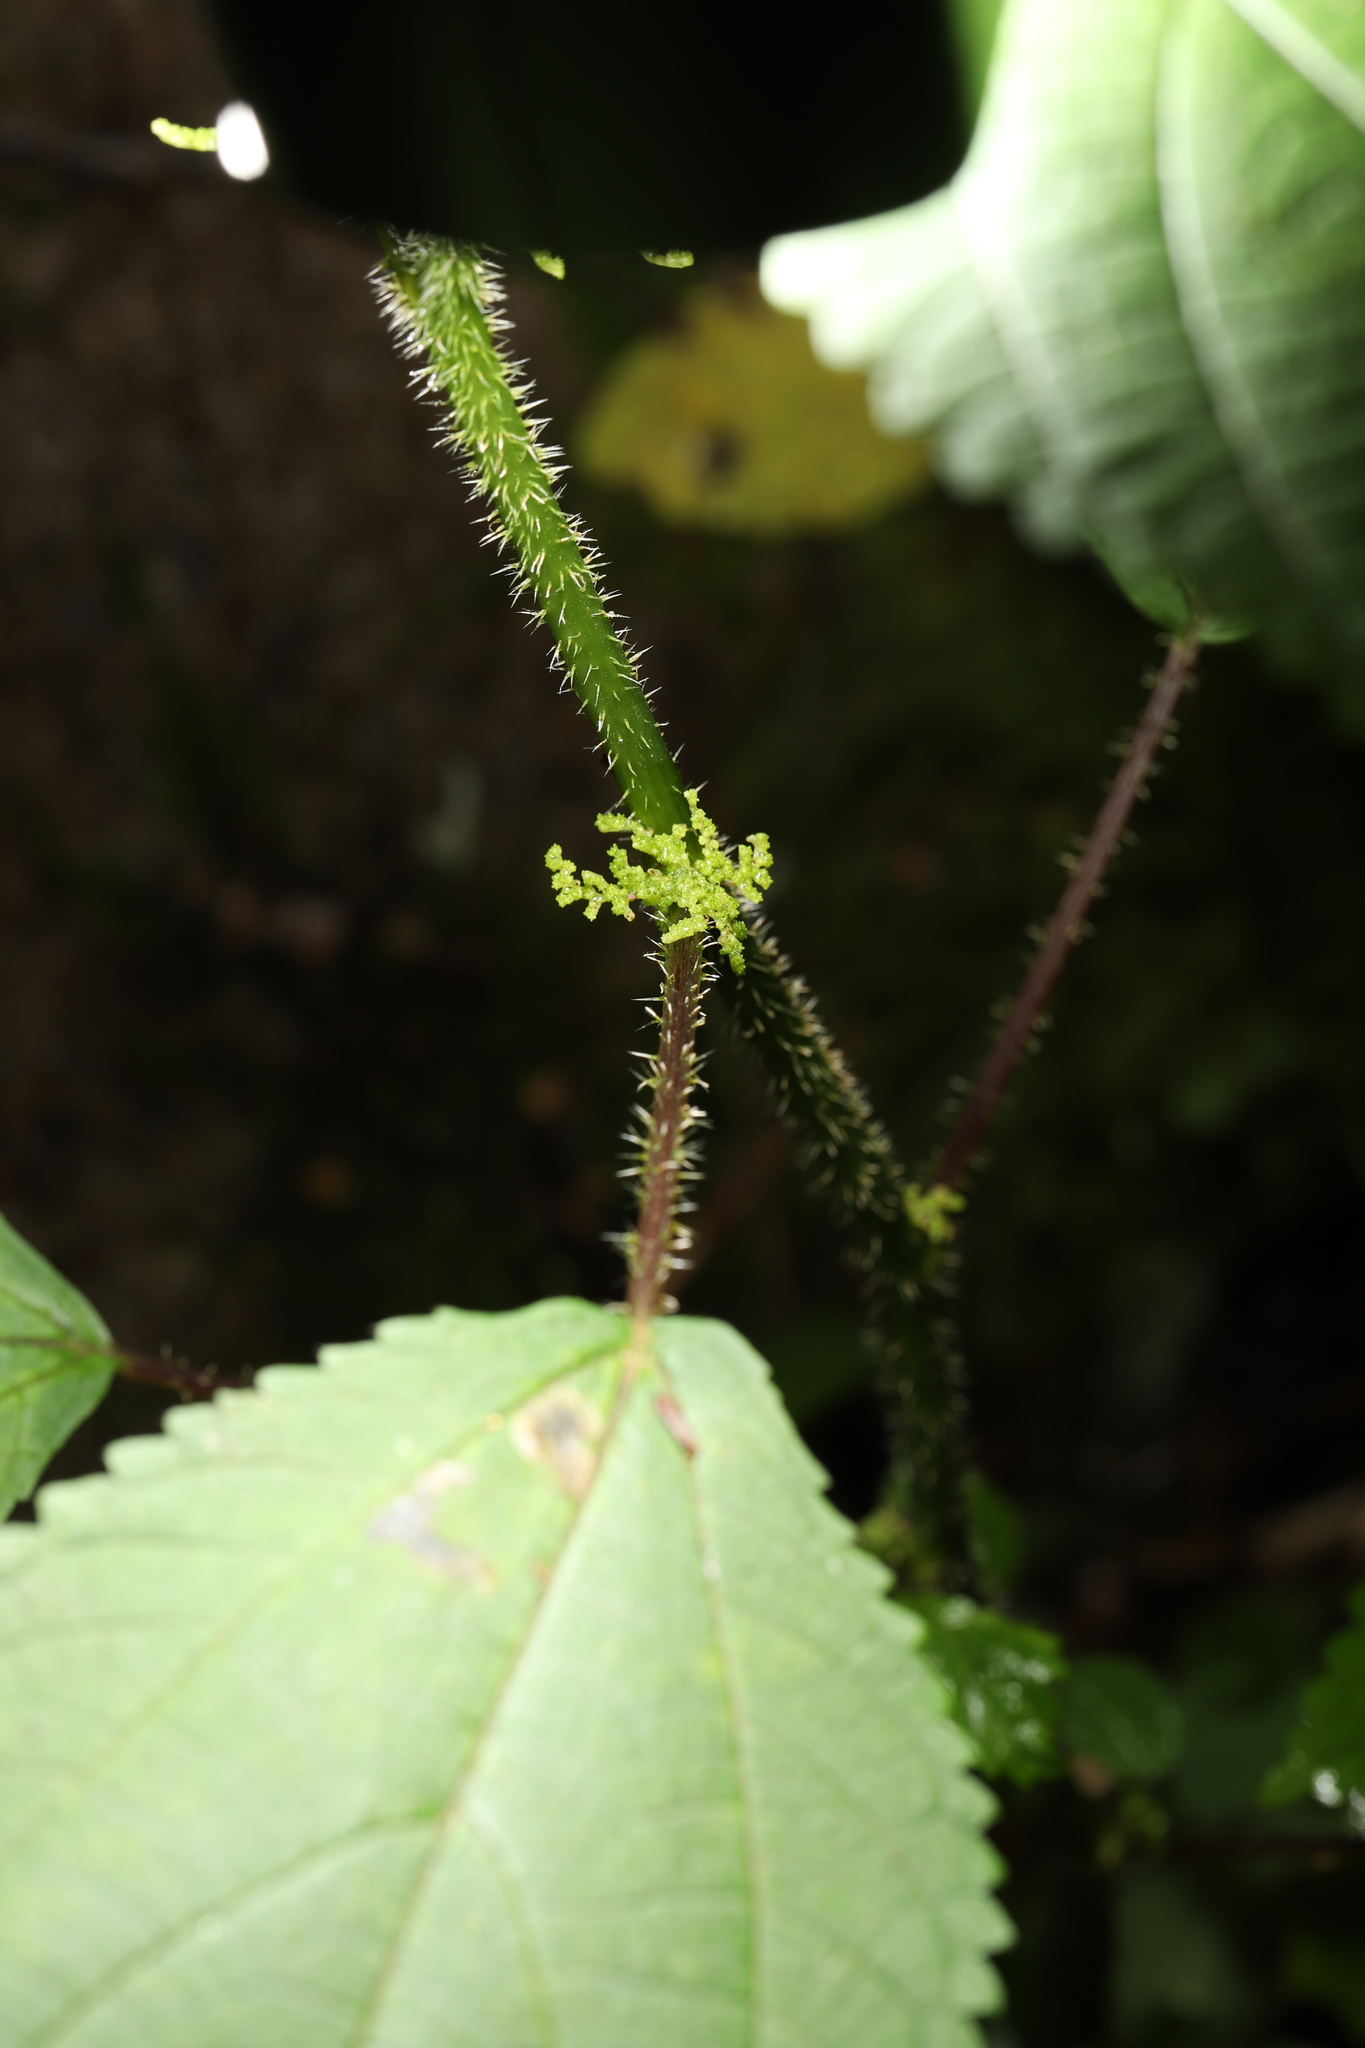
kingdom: Plantae
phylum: Tracheophyta
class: Magnoliopsida
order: Rosales
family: Urticaceae
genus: Laportea
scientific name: Laportea canadensis
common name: Canada nettle
